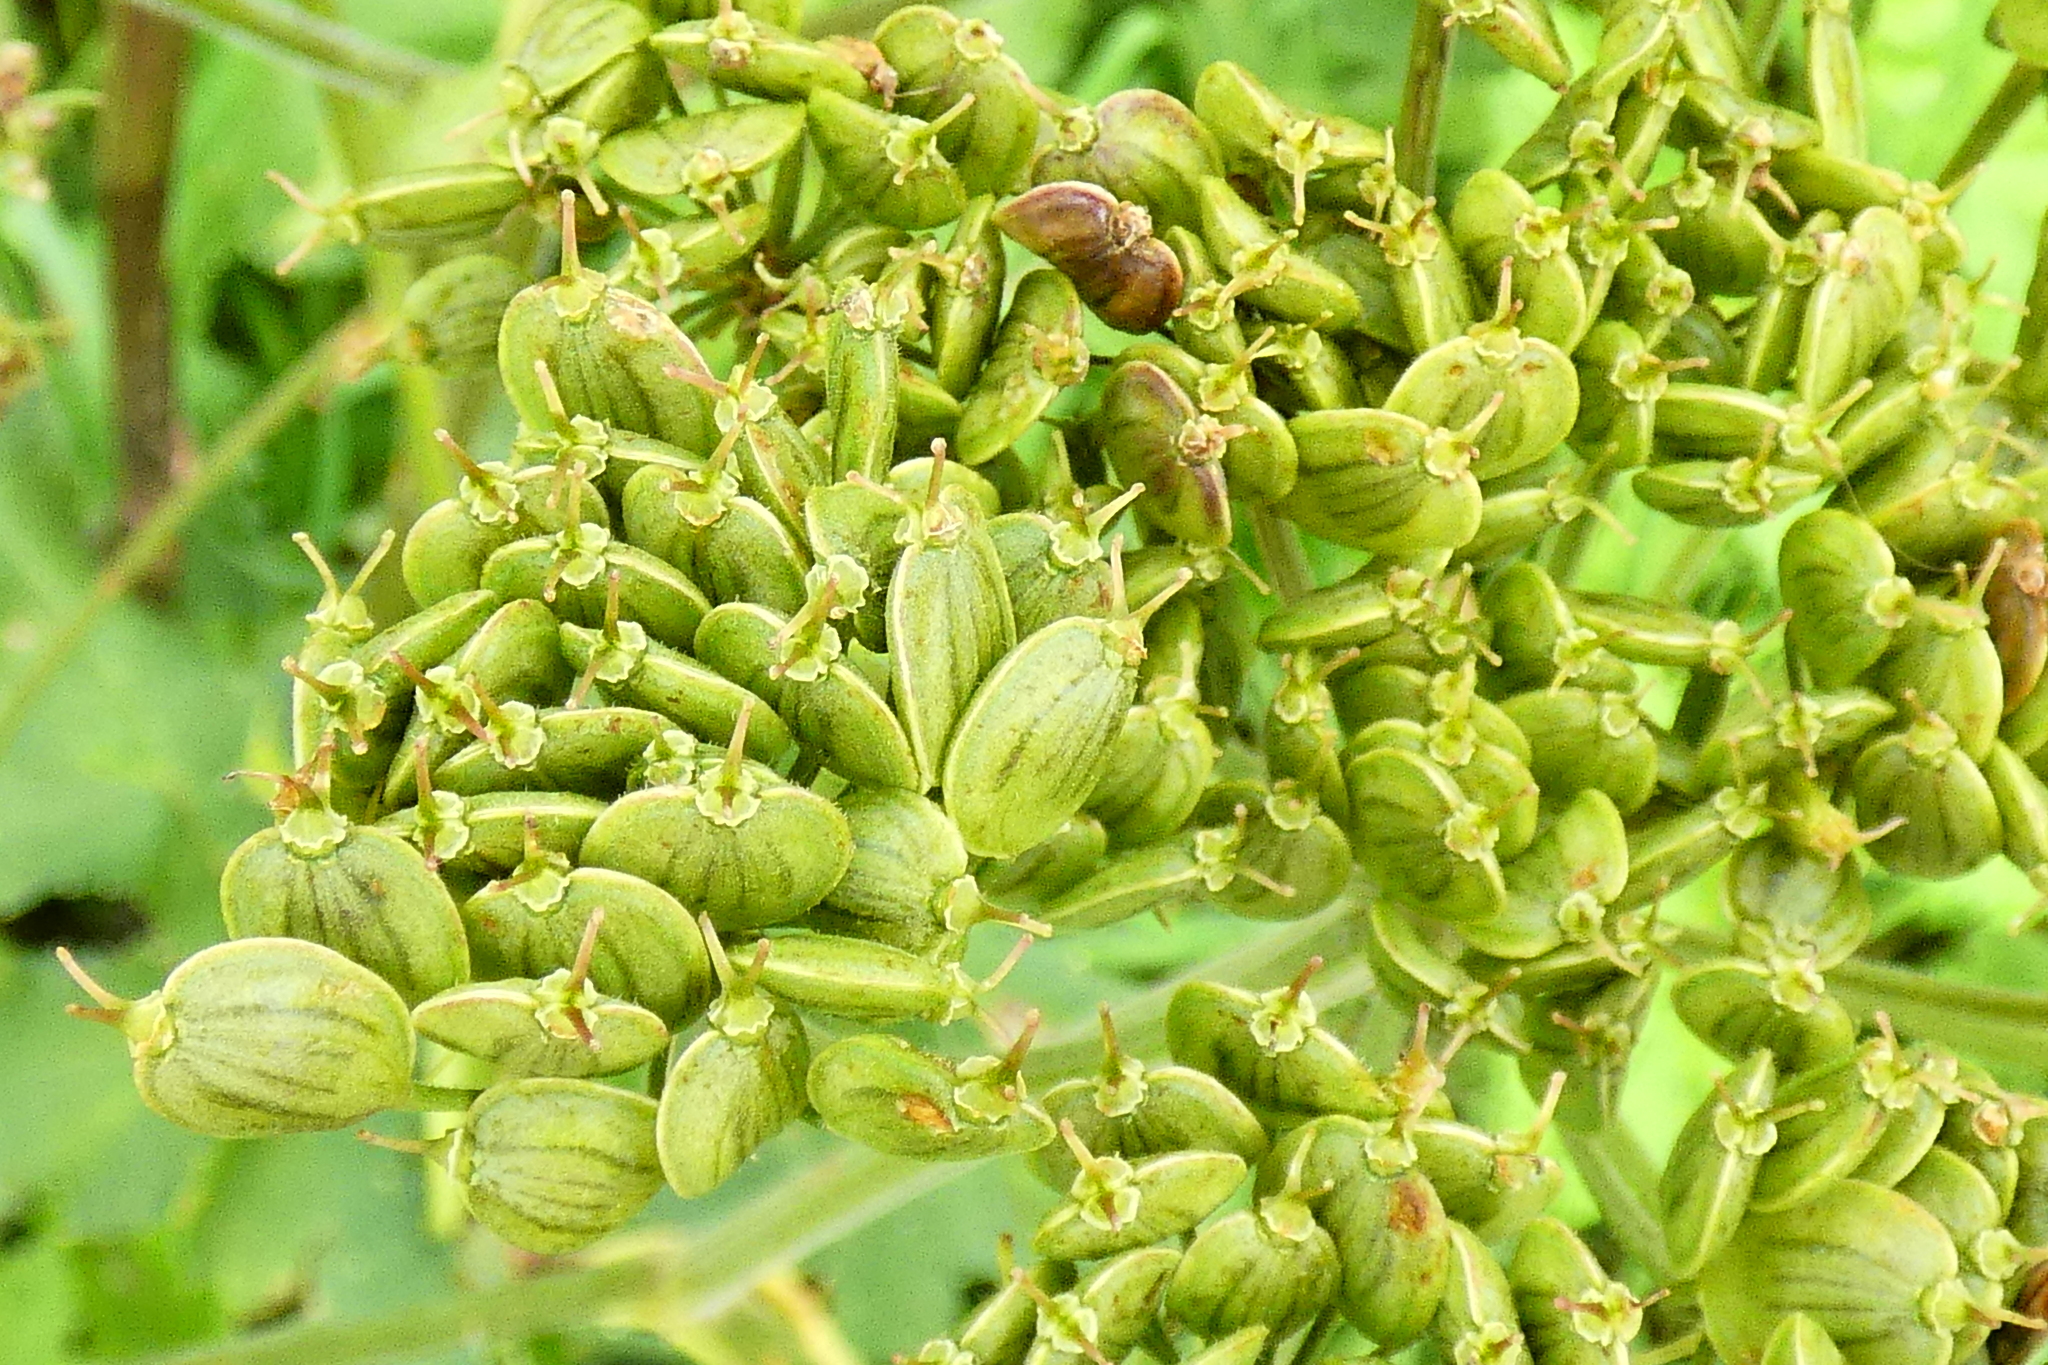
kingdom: Plantae
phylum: Tracheophyta
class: Magnoliopsida
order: Apiales
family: Apiaceae
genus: Heracleum
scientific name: Heracleum sphondylium
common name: Hogweed
